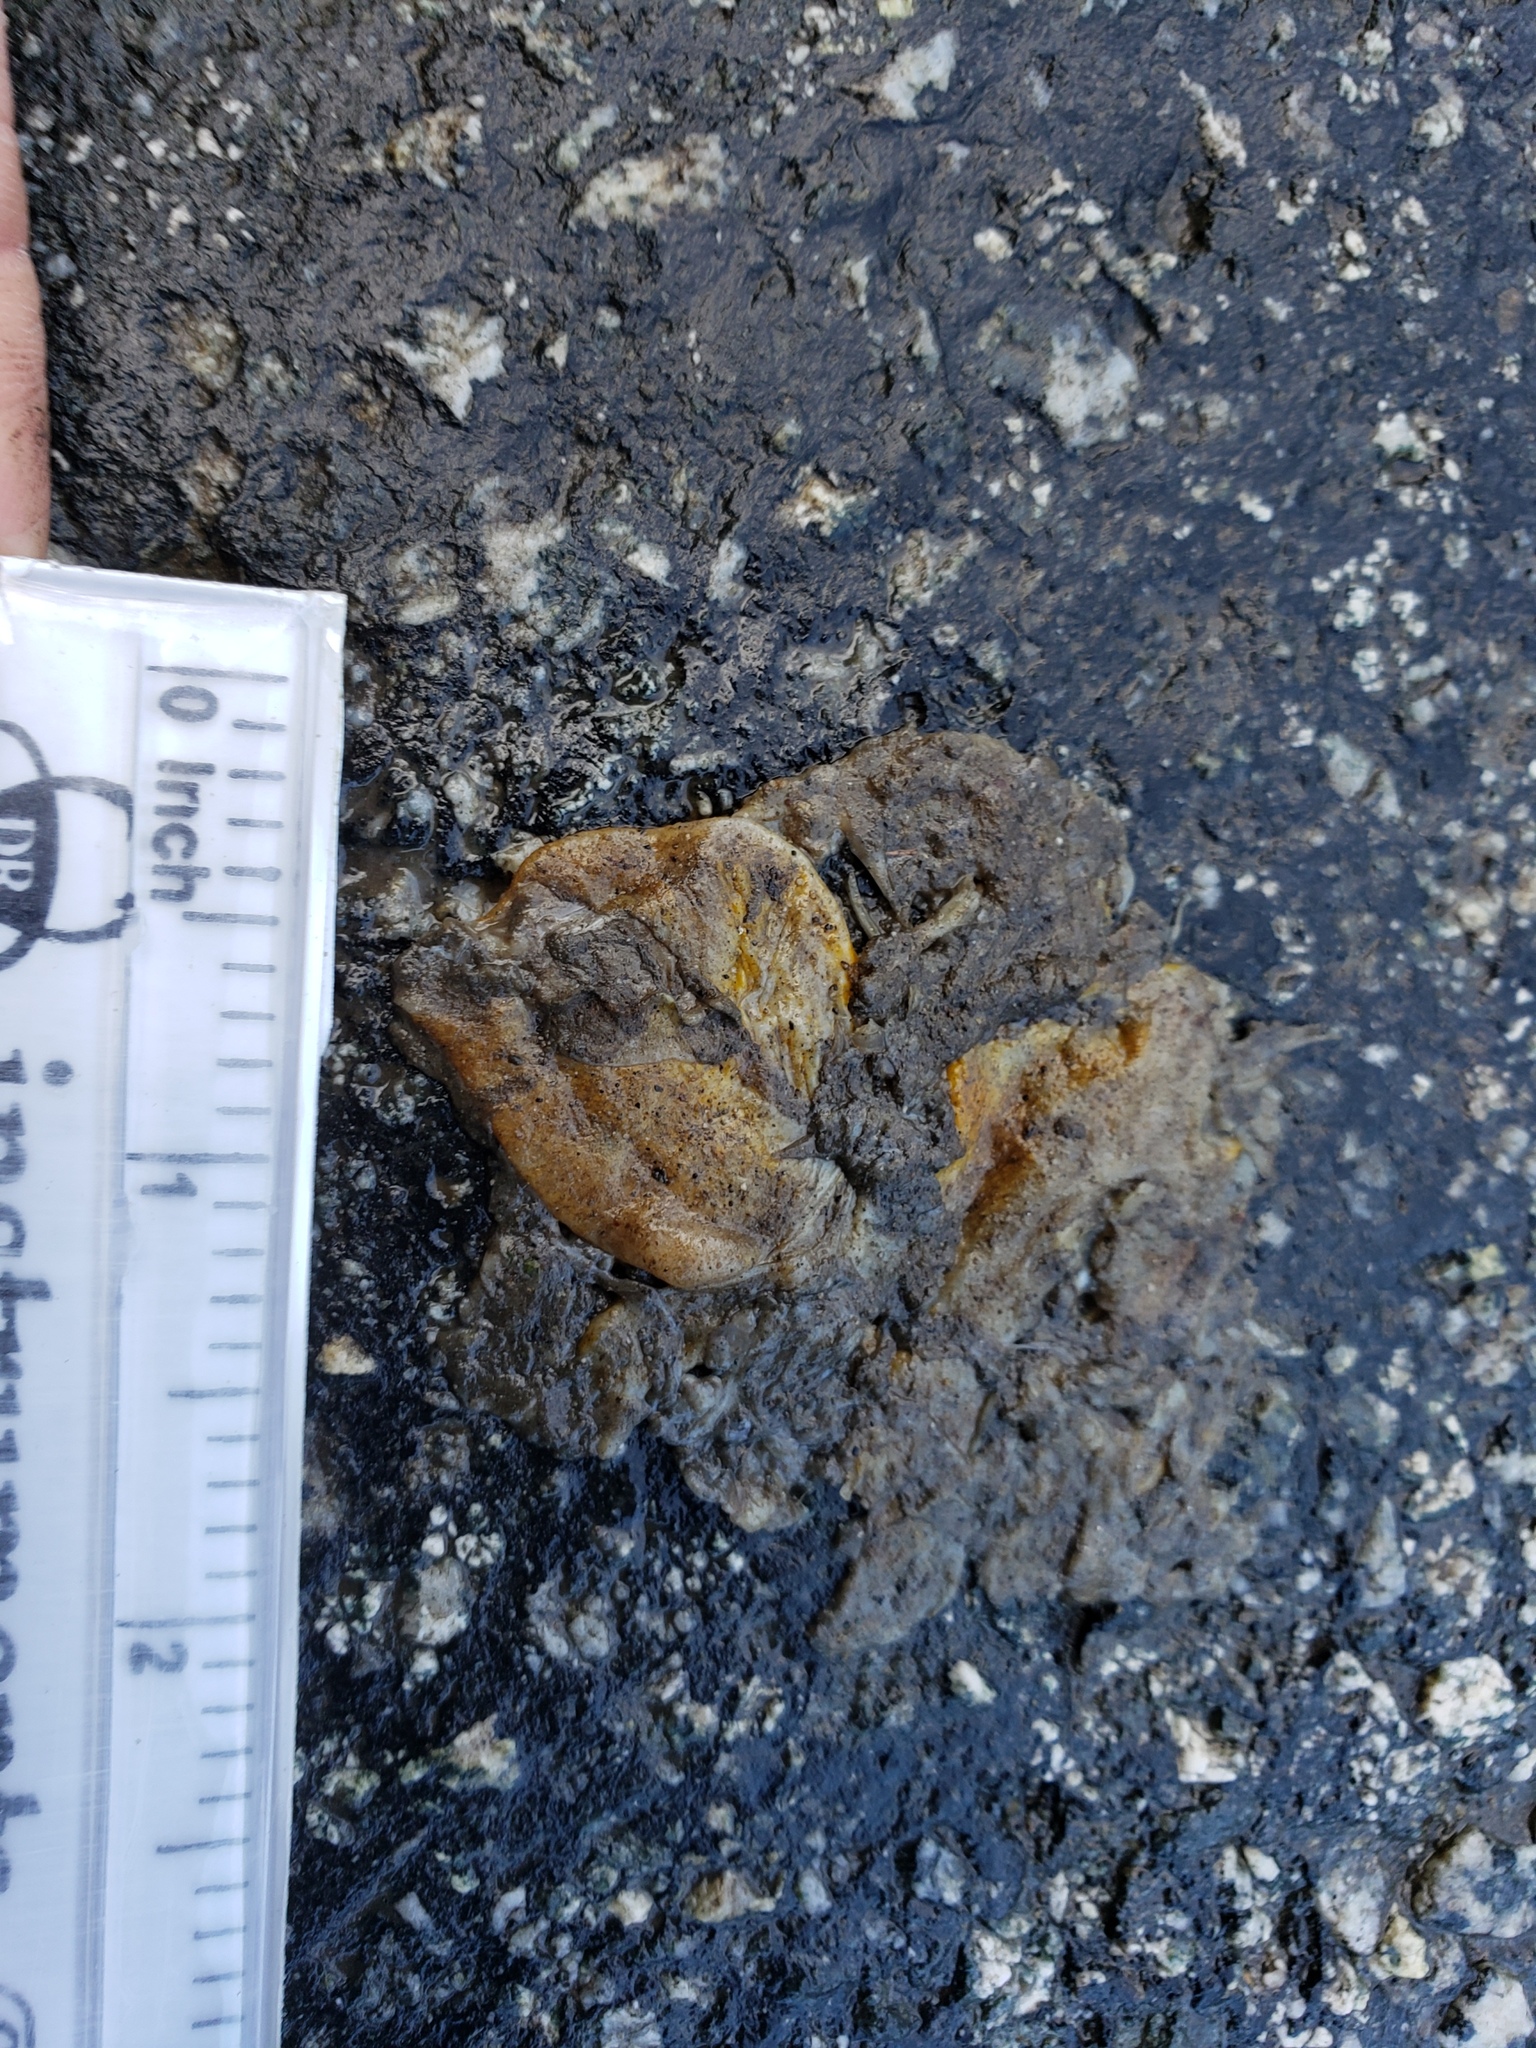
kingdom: Animalia
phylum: Chordata
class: Amphibia
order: Caudata
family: Salamandridae
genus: Taricha
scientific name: Taricha
